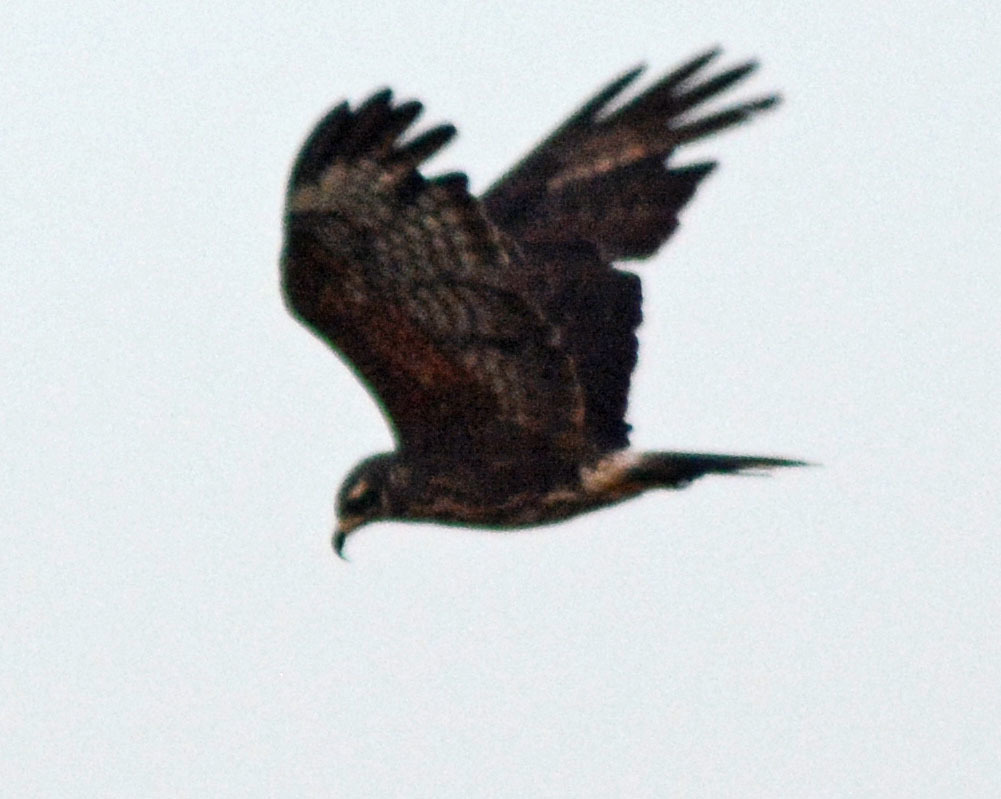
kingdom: Animalia
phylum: Chordata
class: Aves
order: Accipitriformes
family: Accipitridae
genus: Rostrhamus
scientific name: Rostrhamus sociabilis
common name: Snail kite
